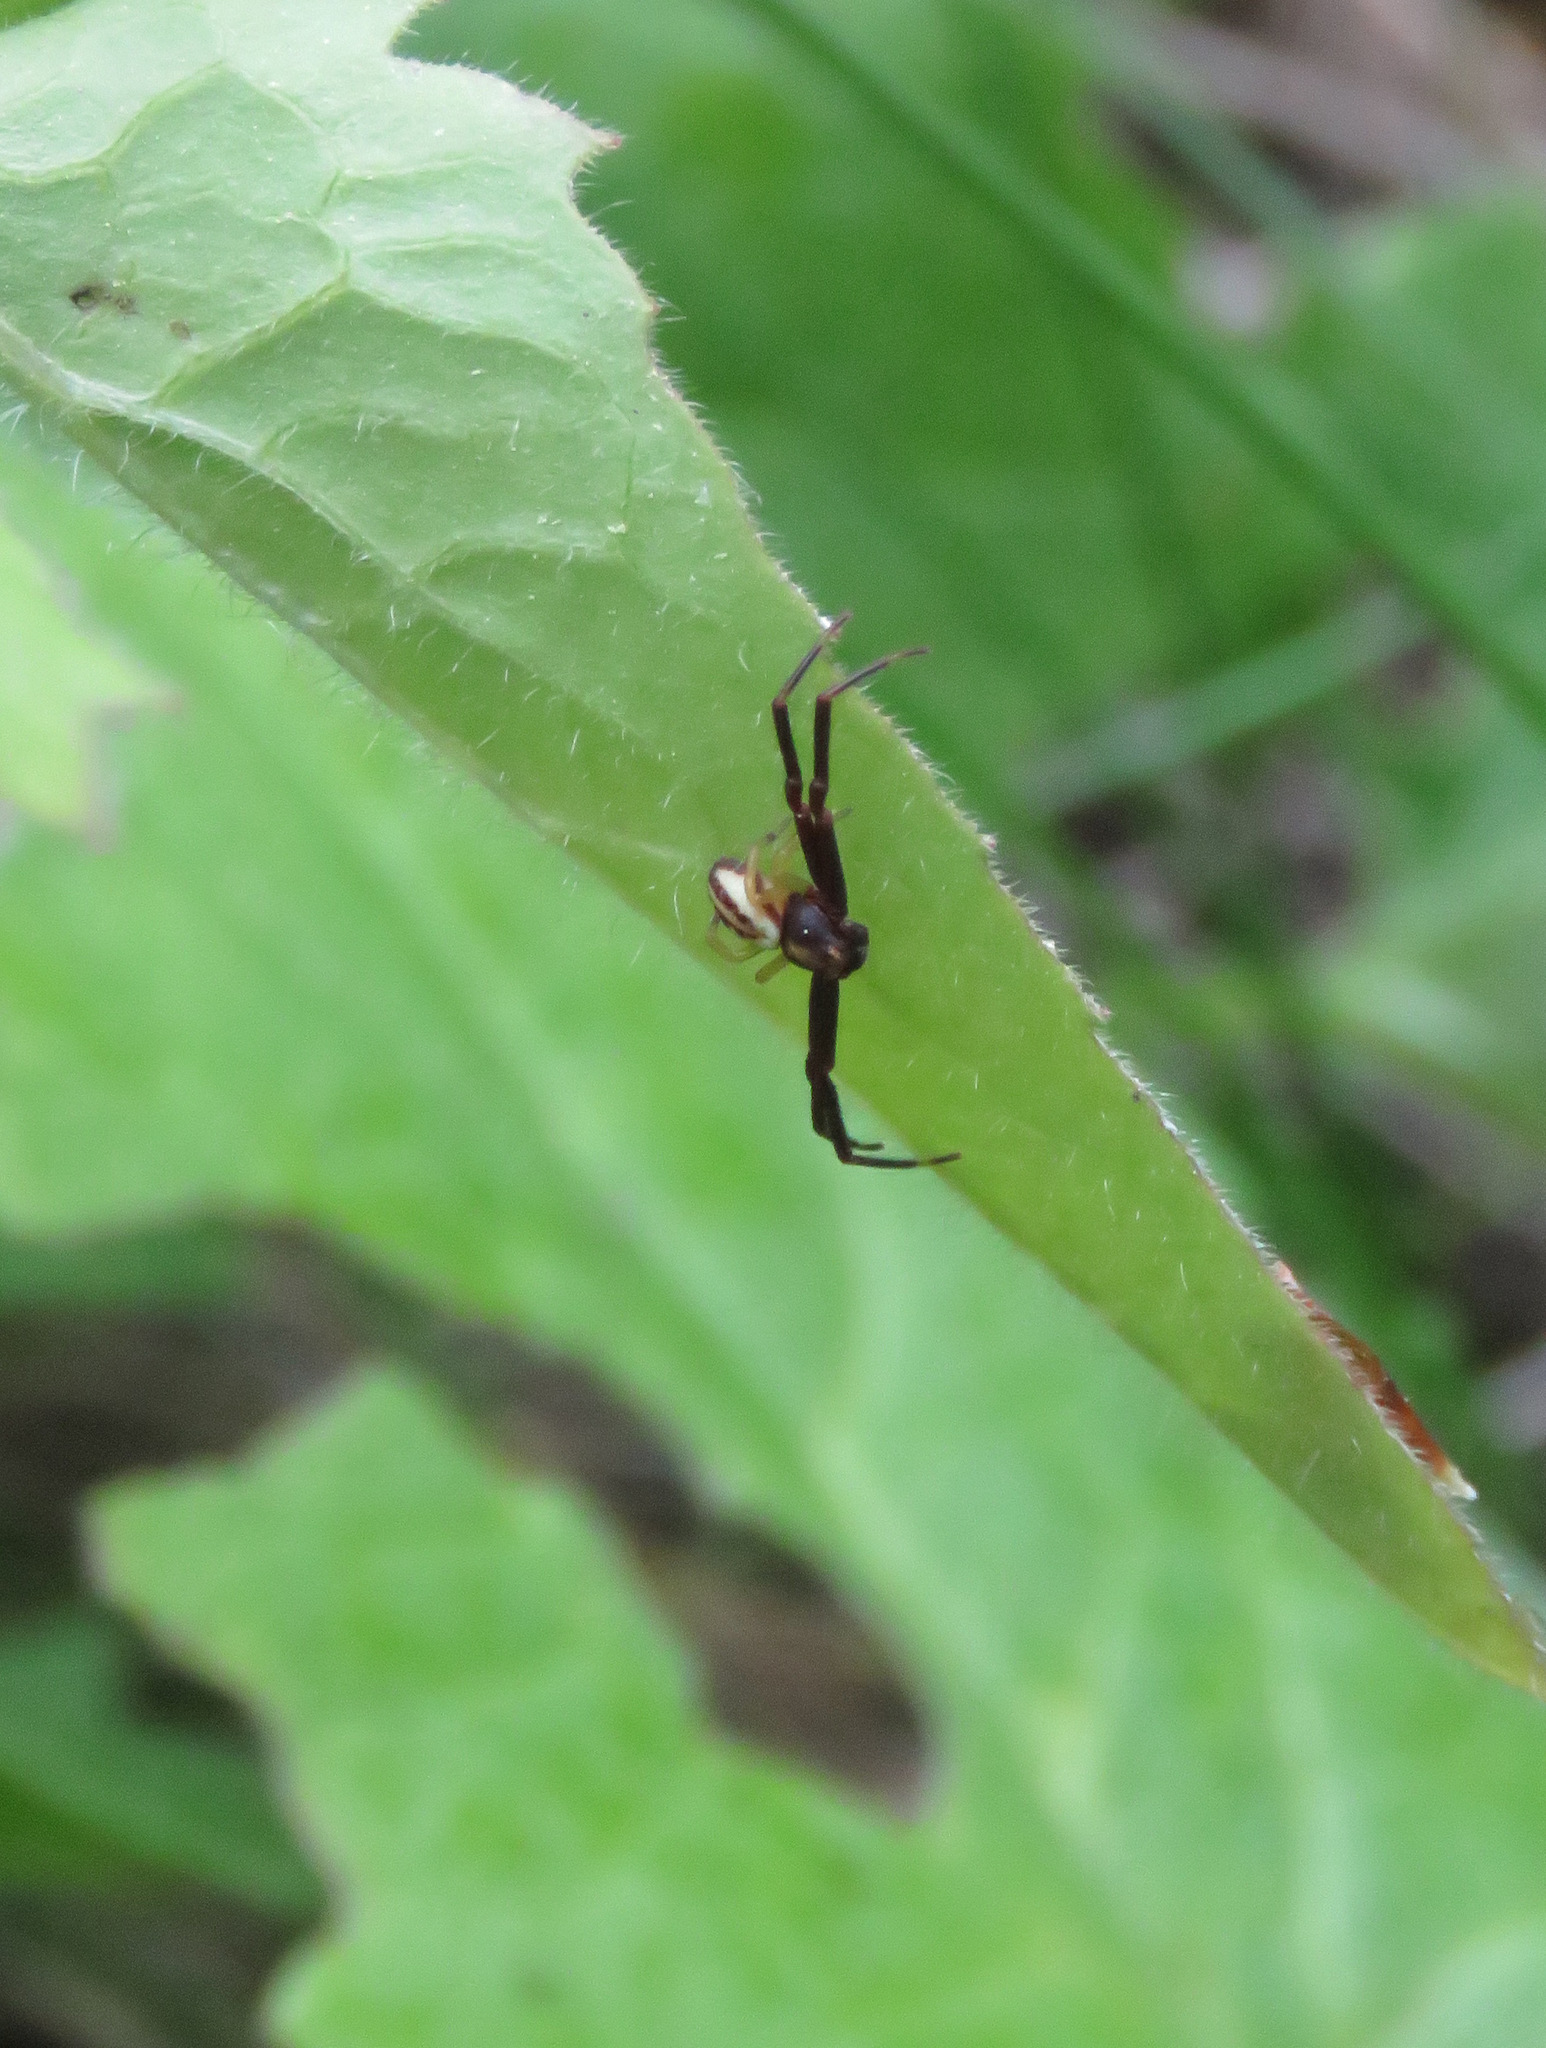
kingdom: Animalia
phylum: Arthropoda
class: Arachnida
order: Araneae
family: Thomisidae
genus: Misumena
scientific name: Misumena vatia
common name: Goldenrod crab spider
